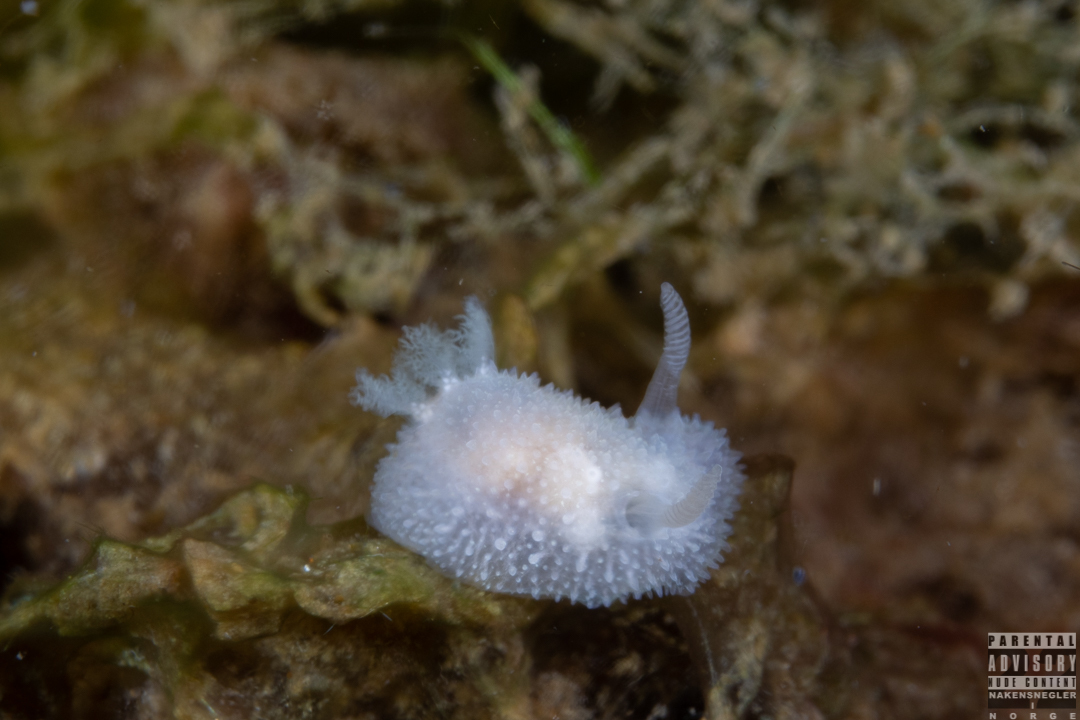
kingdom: Animalia
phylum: Mollusca
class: Gastropoda
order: Nudibranchia
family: Onchidorididae
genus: Acanthodoris
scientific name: Acanthodoris pilosa
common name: Hairy spiny doris
